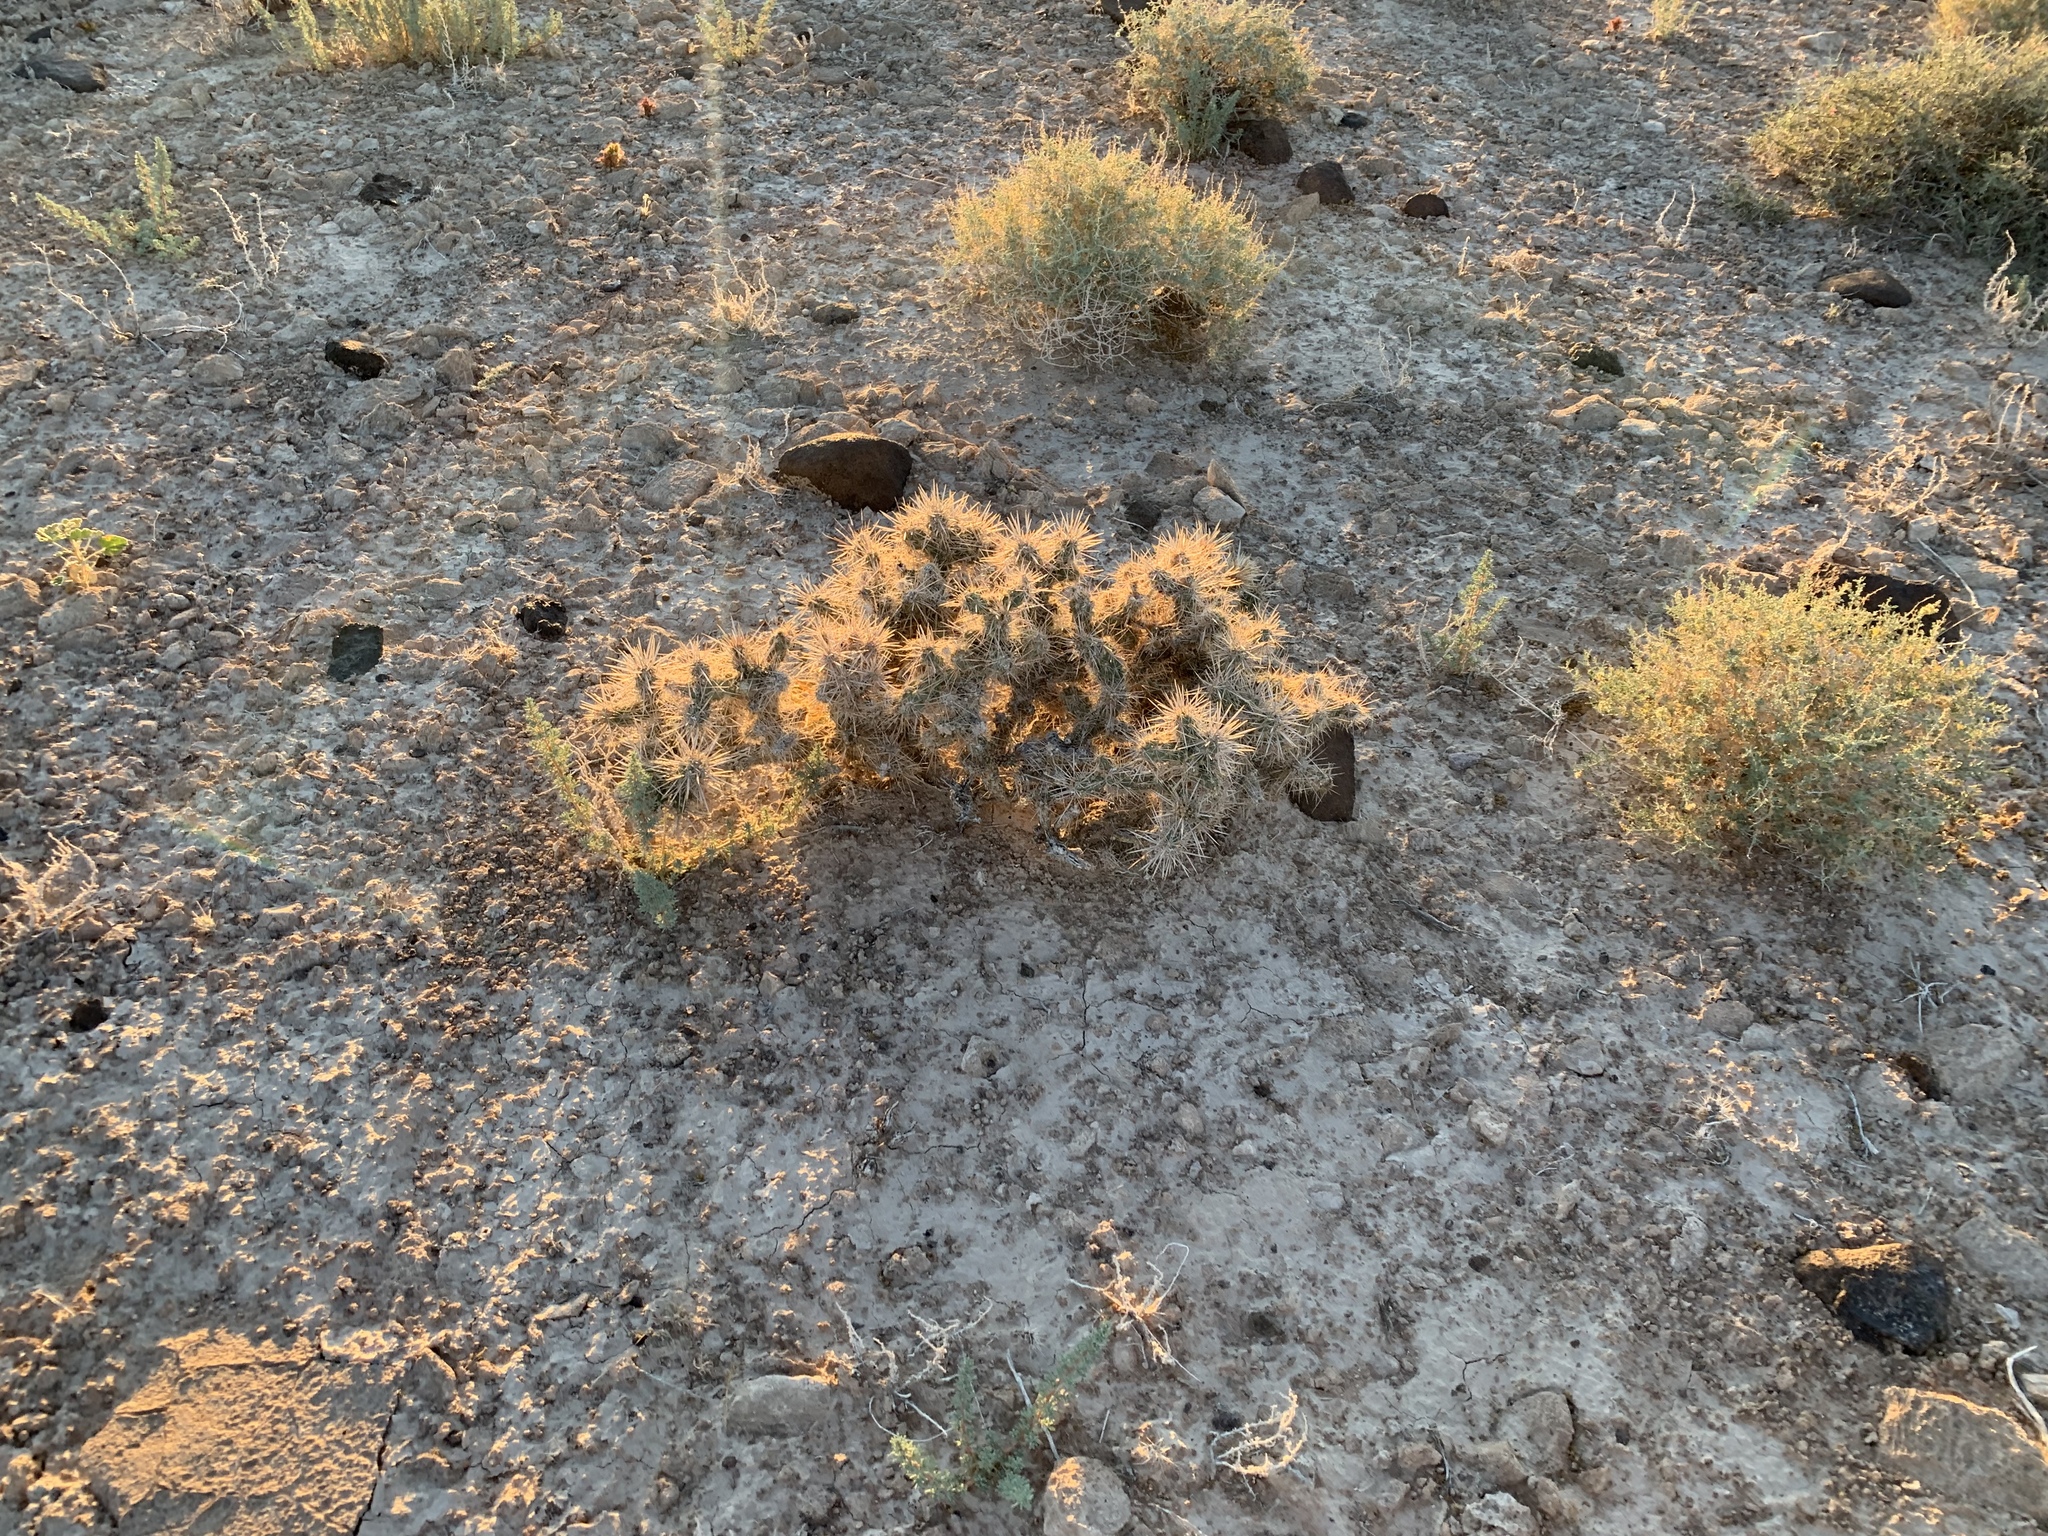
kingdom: Plantae
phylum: Tracheophyta
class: Magnoliopsida
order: Caryophyllales
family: Cactaceae
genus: Cylindropuntia
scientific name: Cylindropuntia echinocarpa
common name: Ground cholla
